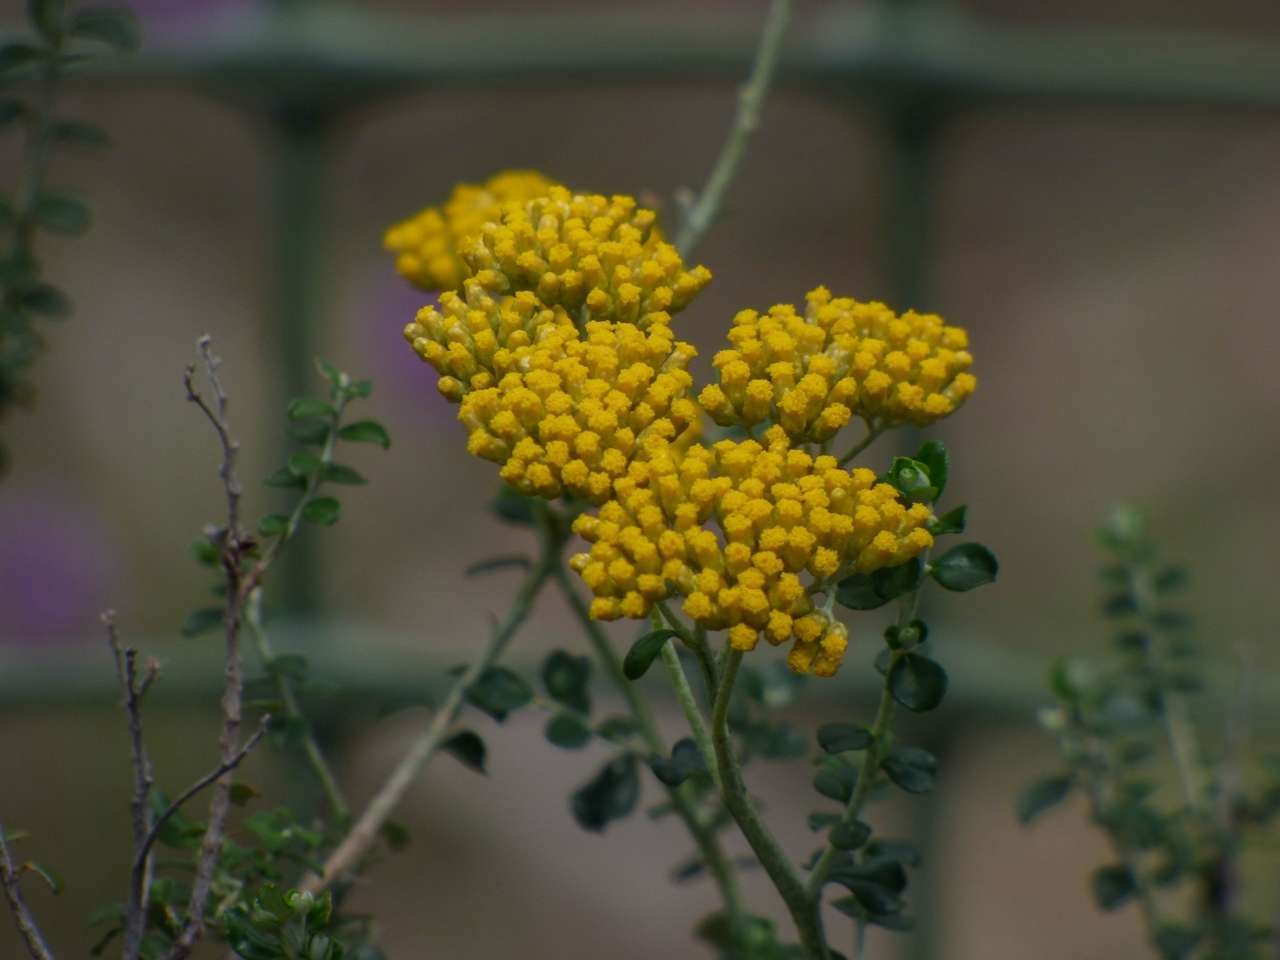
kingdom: Plantae
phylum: Tracheophyta
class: Magnoliopsida
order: Asterales
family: Asteraceae
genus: Ozothamnus
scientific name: Ozothamnus obcordatus
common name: Grey everlasting
